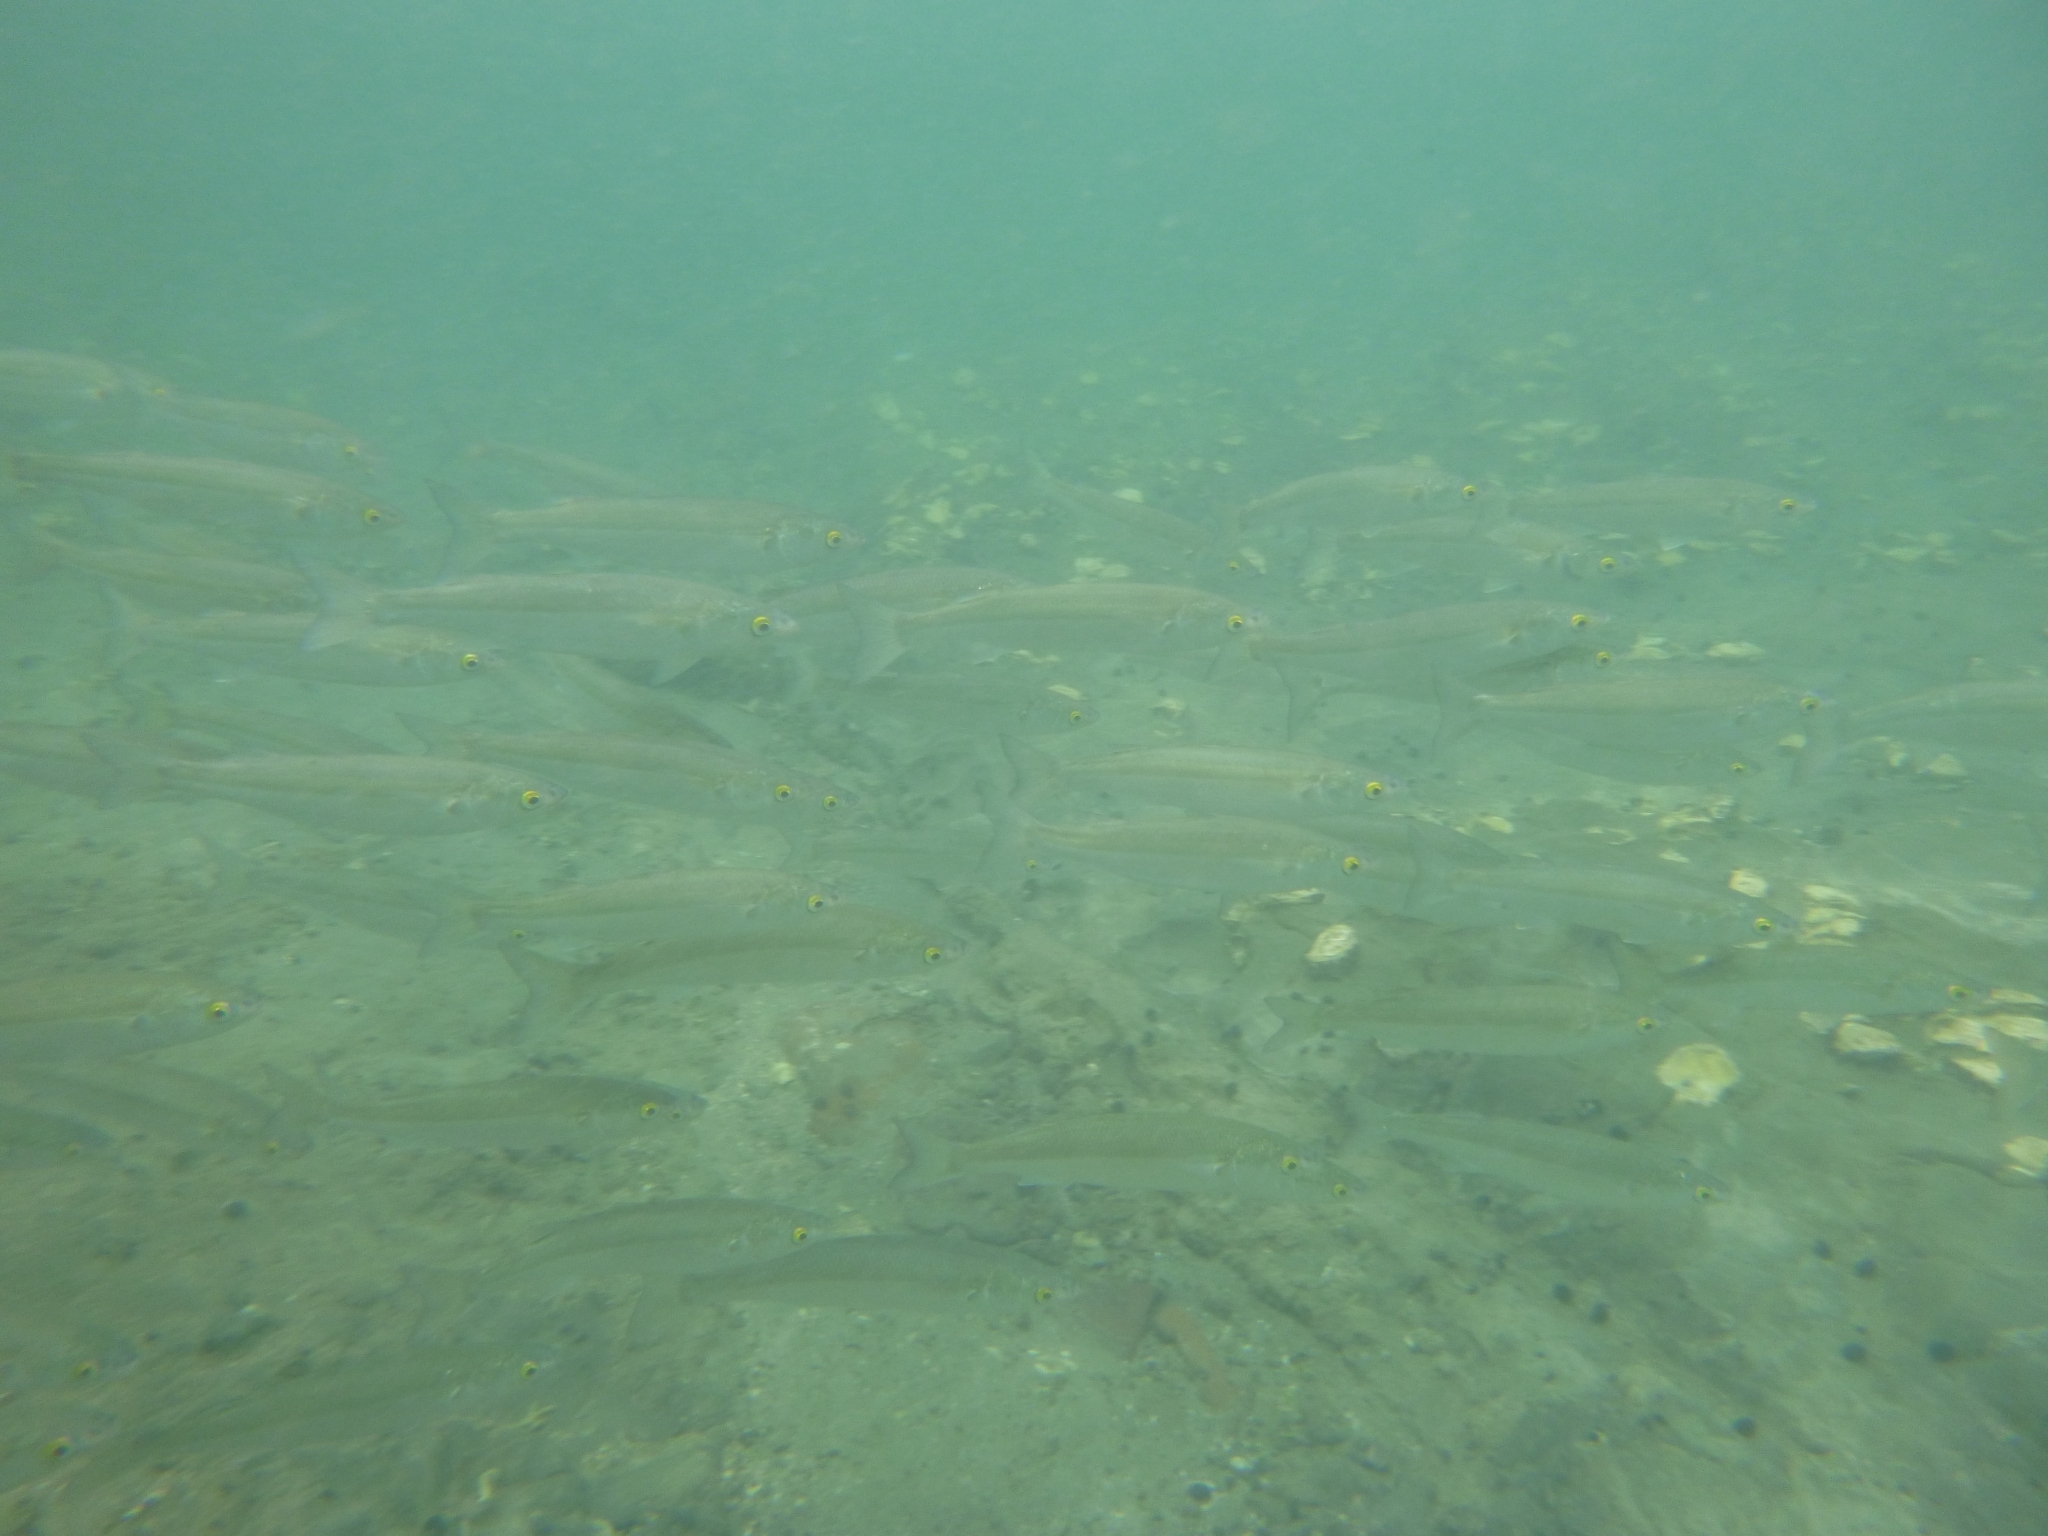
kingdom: Animalia
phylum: Chordata
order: Mugiliformes
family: Mugilidae
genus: Aldrichetta
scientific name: Aldrichetta forsteri
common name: Yellow-eye mullet
